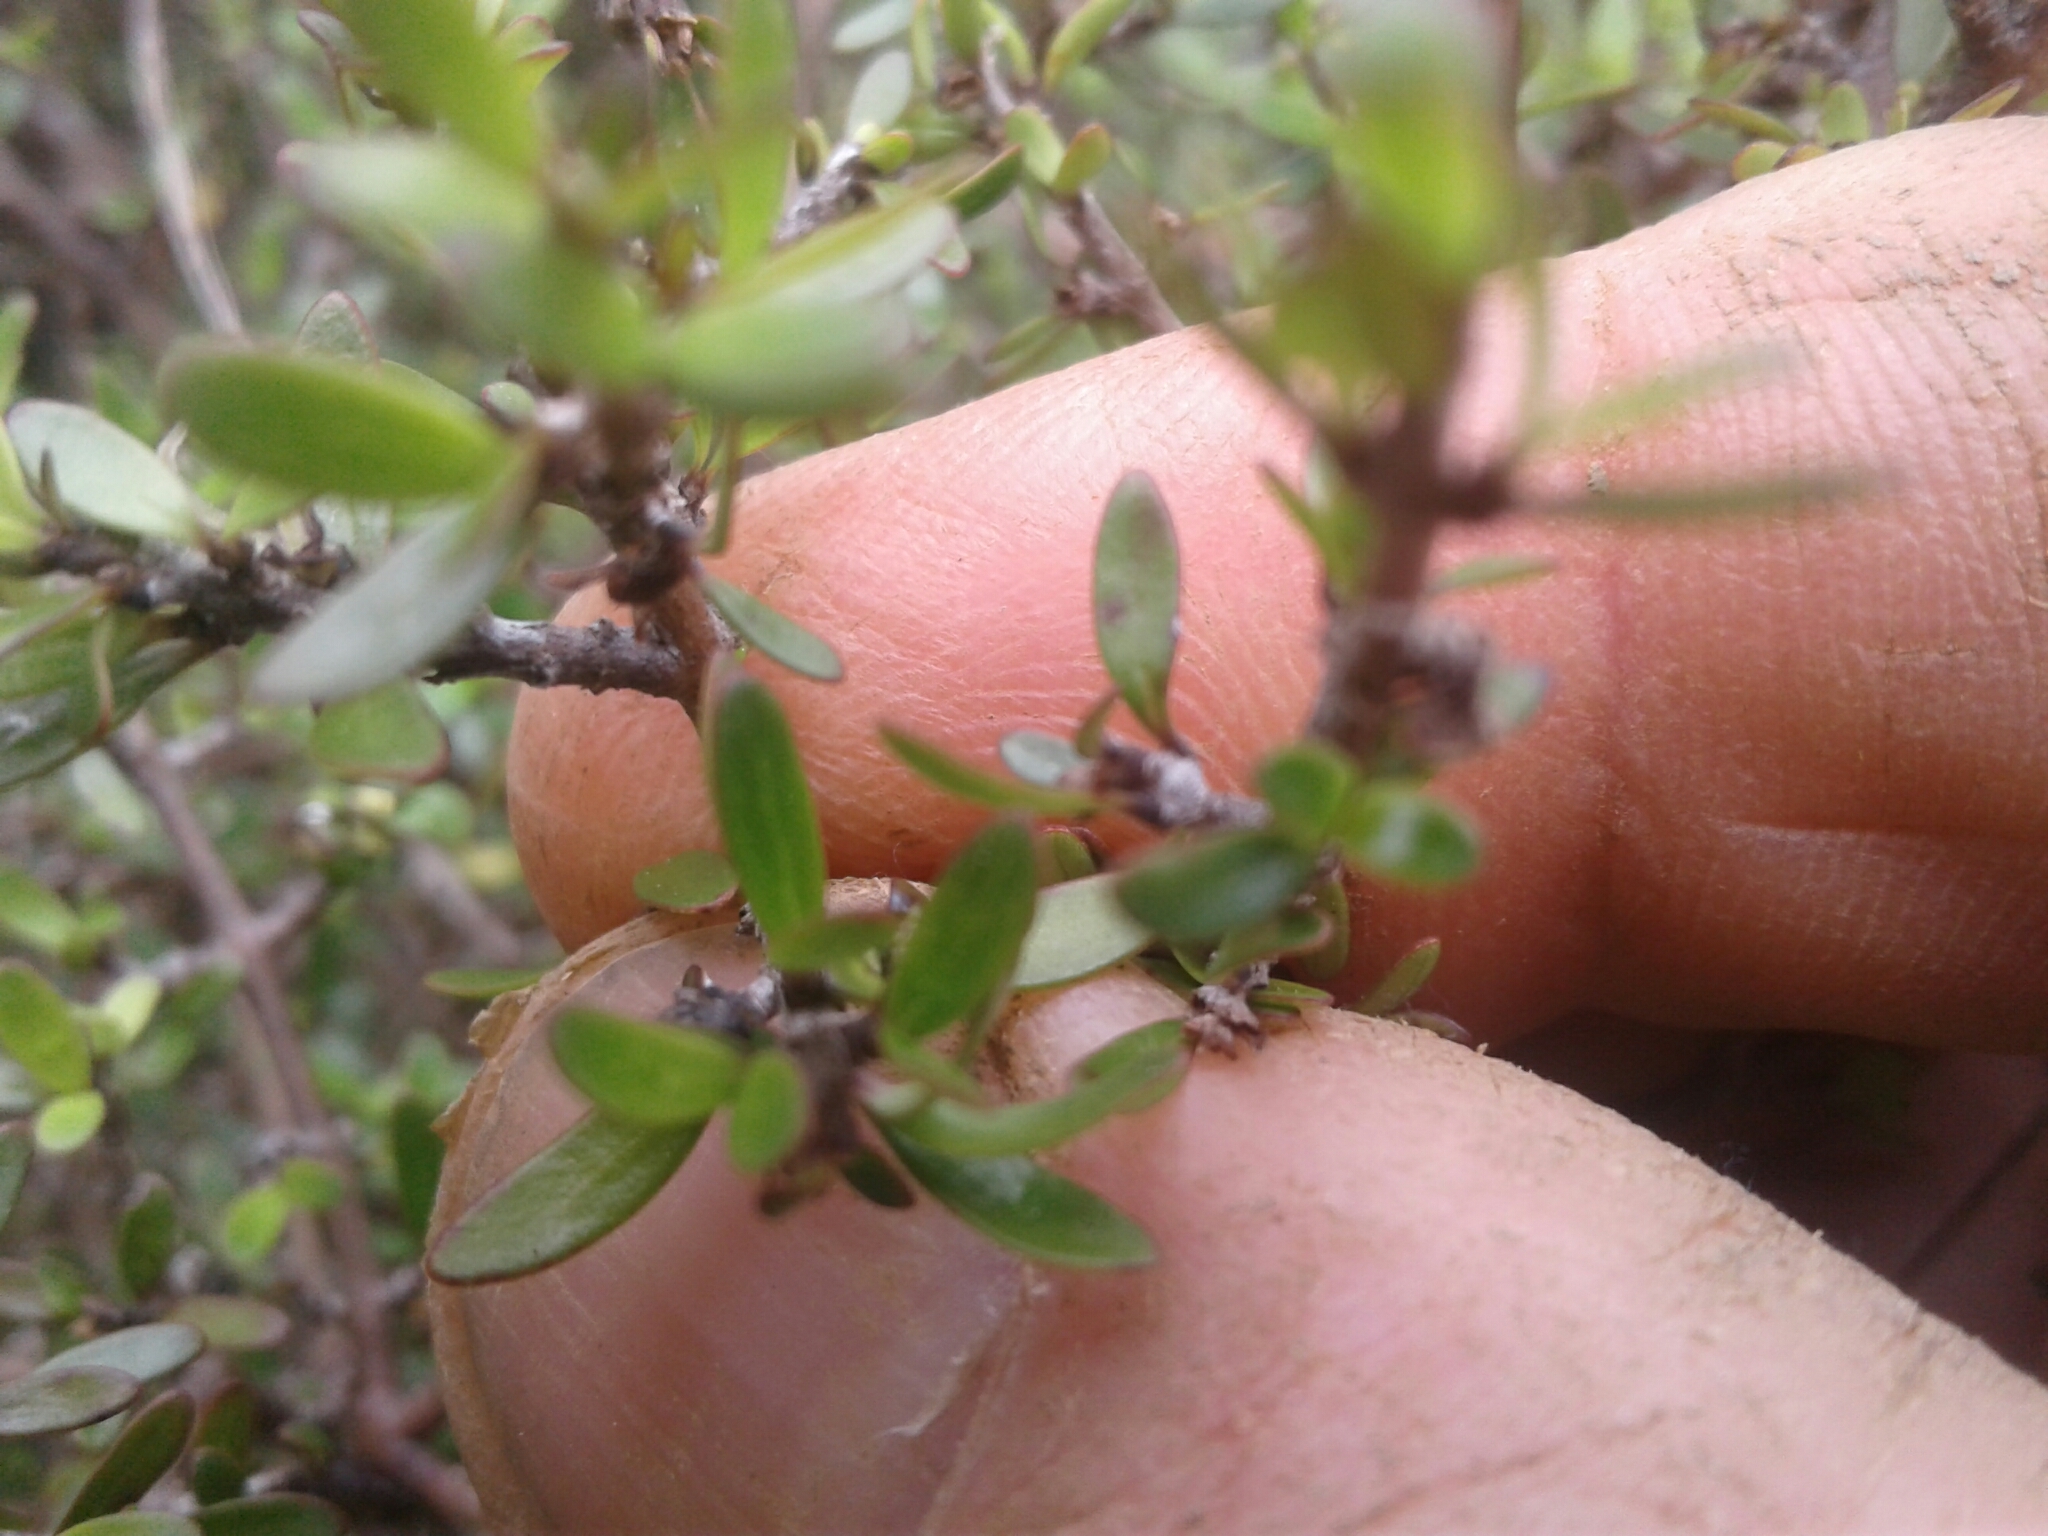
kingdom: Plantae
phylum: Tracheophyta
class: Magnoliopsida
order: Gentianales
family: Rubiaceae
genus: Coprosma
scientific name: Coprosma propinqua
